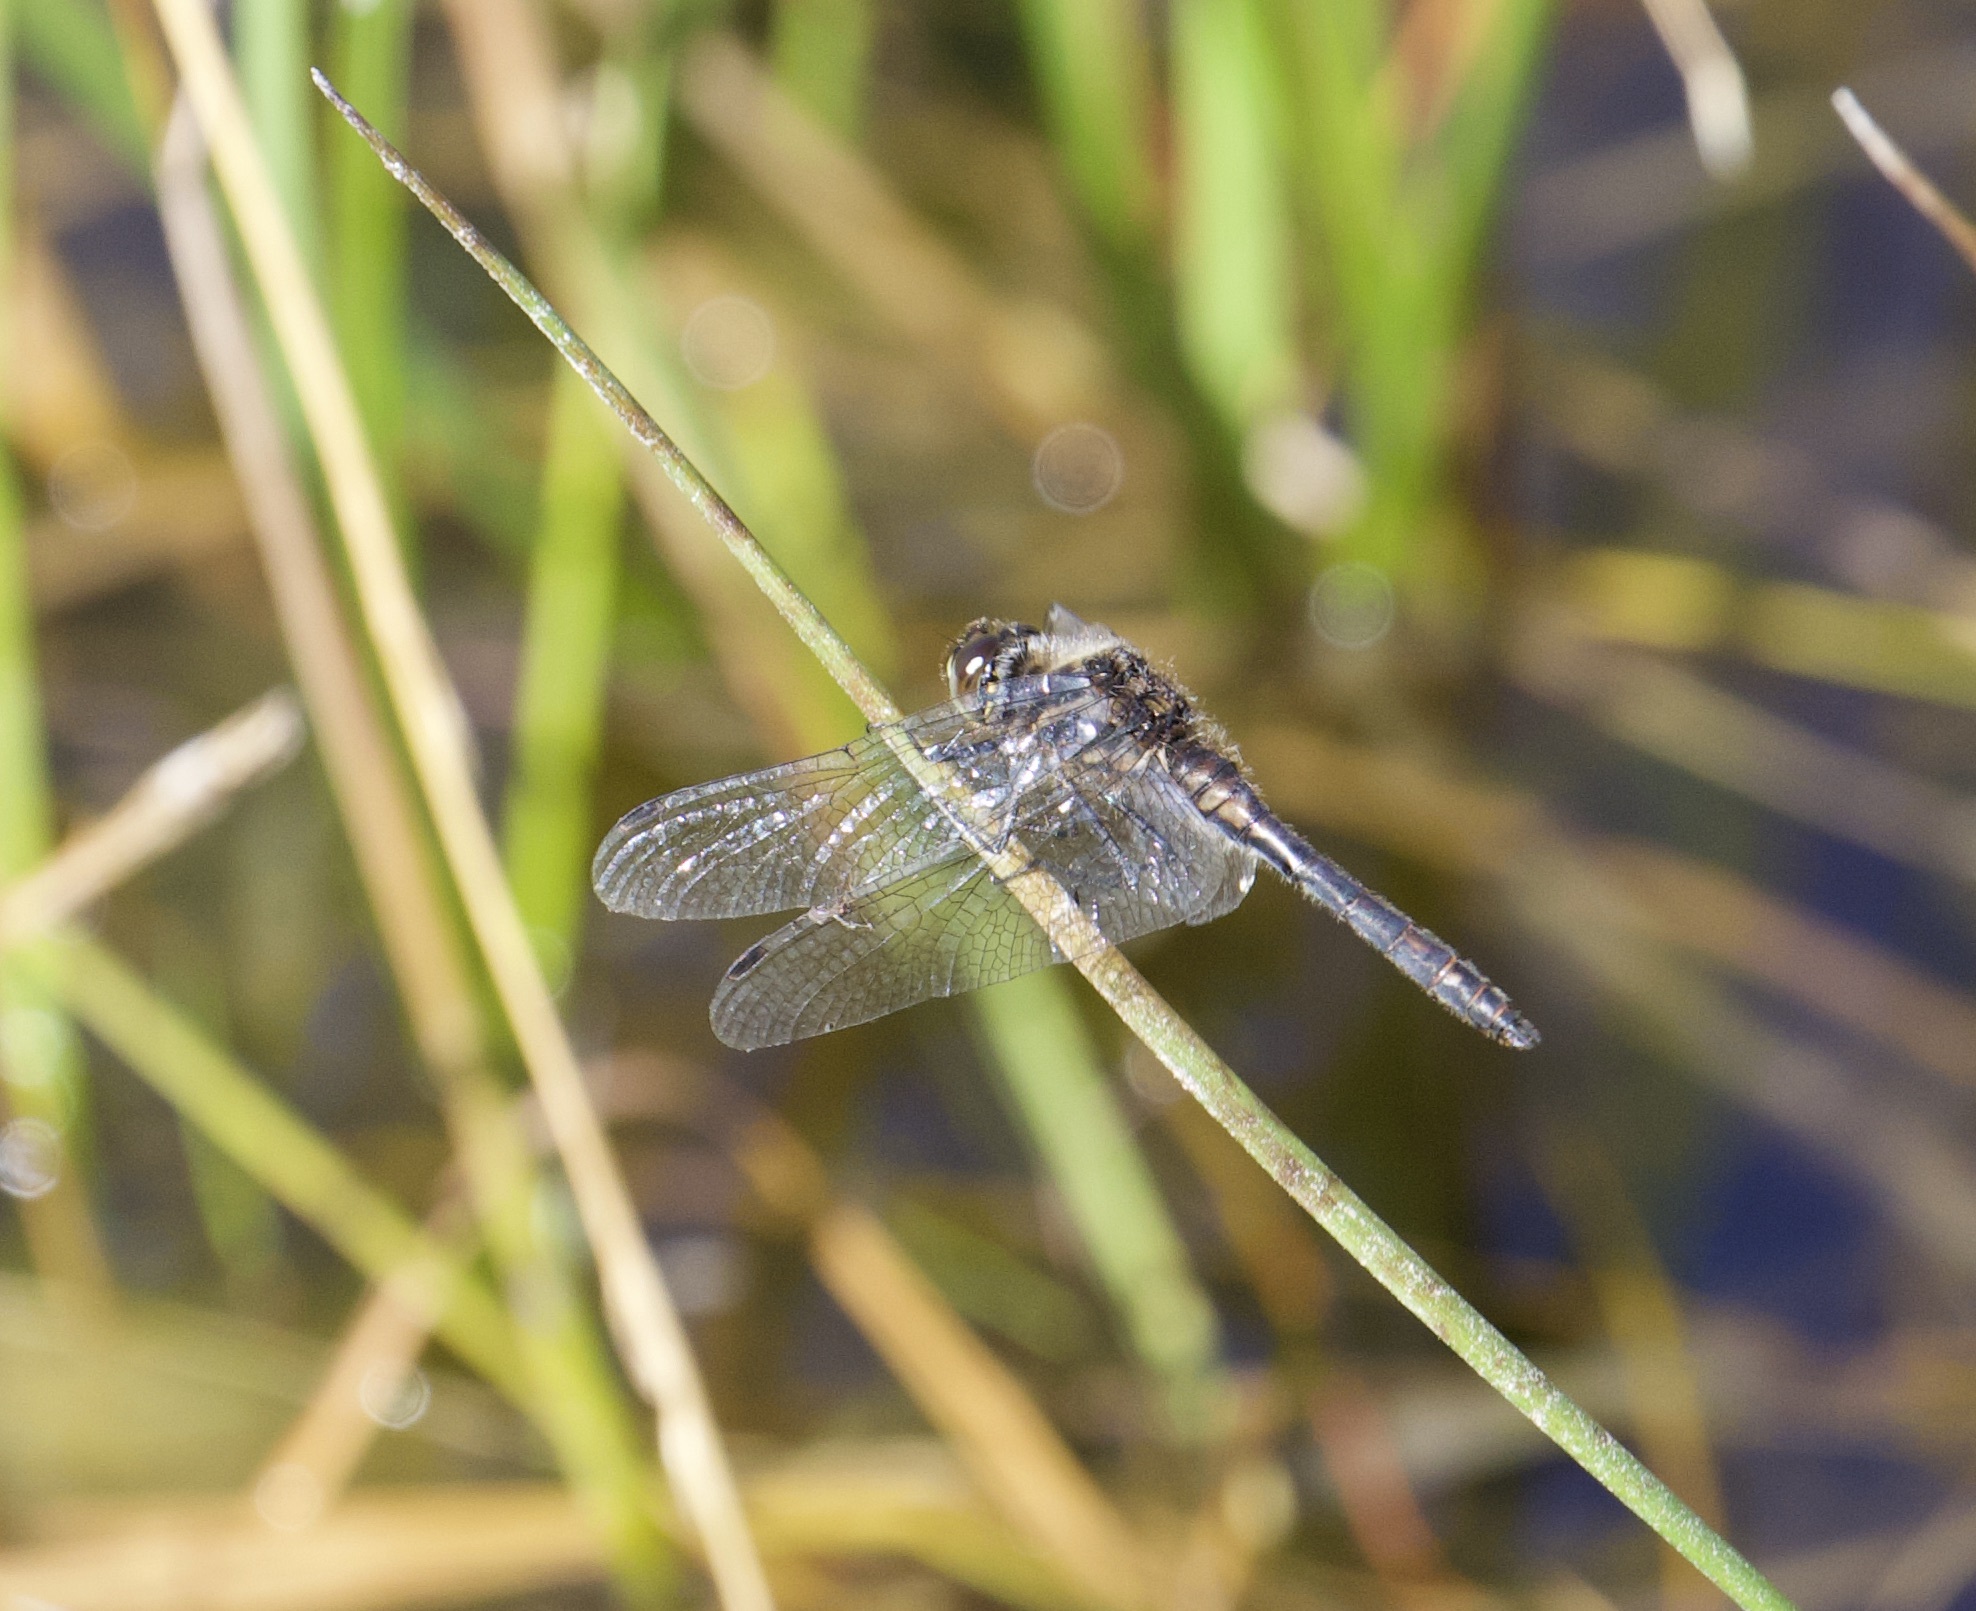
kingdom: Animalia
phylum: Arthropoda
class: Insecta
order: Odonata
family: Libellulidae
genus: Sympetrum
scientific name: Sympetrum danae
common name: Black darter
